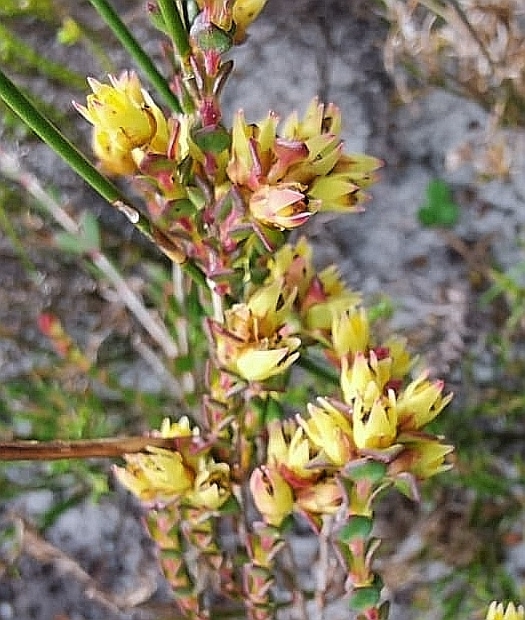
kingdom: Plantae
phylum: Tracheophyta
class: Magnoliopsida
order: Myrtales
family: Penaeaceae
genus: Stylapterus
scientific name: Stylapterus fruticulosus
